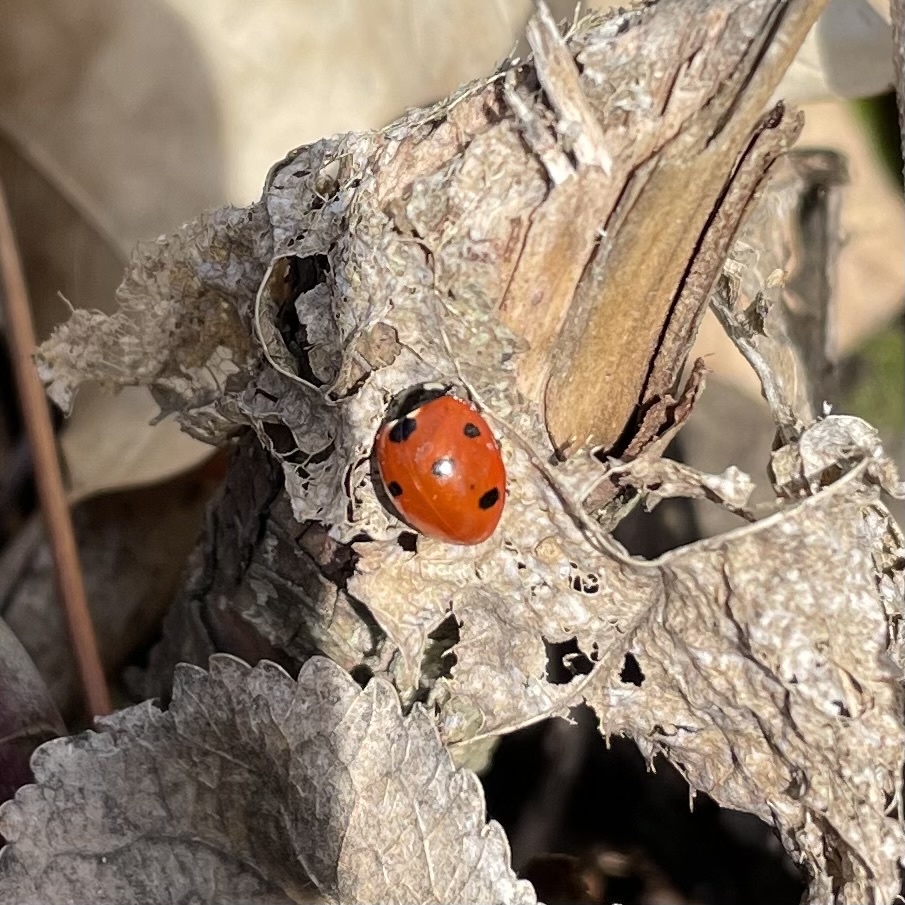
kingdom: Animalia
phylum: Arthropoda
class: Insecta
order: Coleoptera
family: Coccinellidae
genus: Coccinella
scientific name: Coccinella septempunctata
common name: Sevenspotted lady beetle
